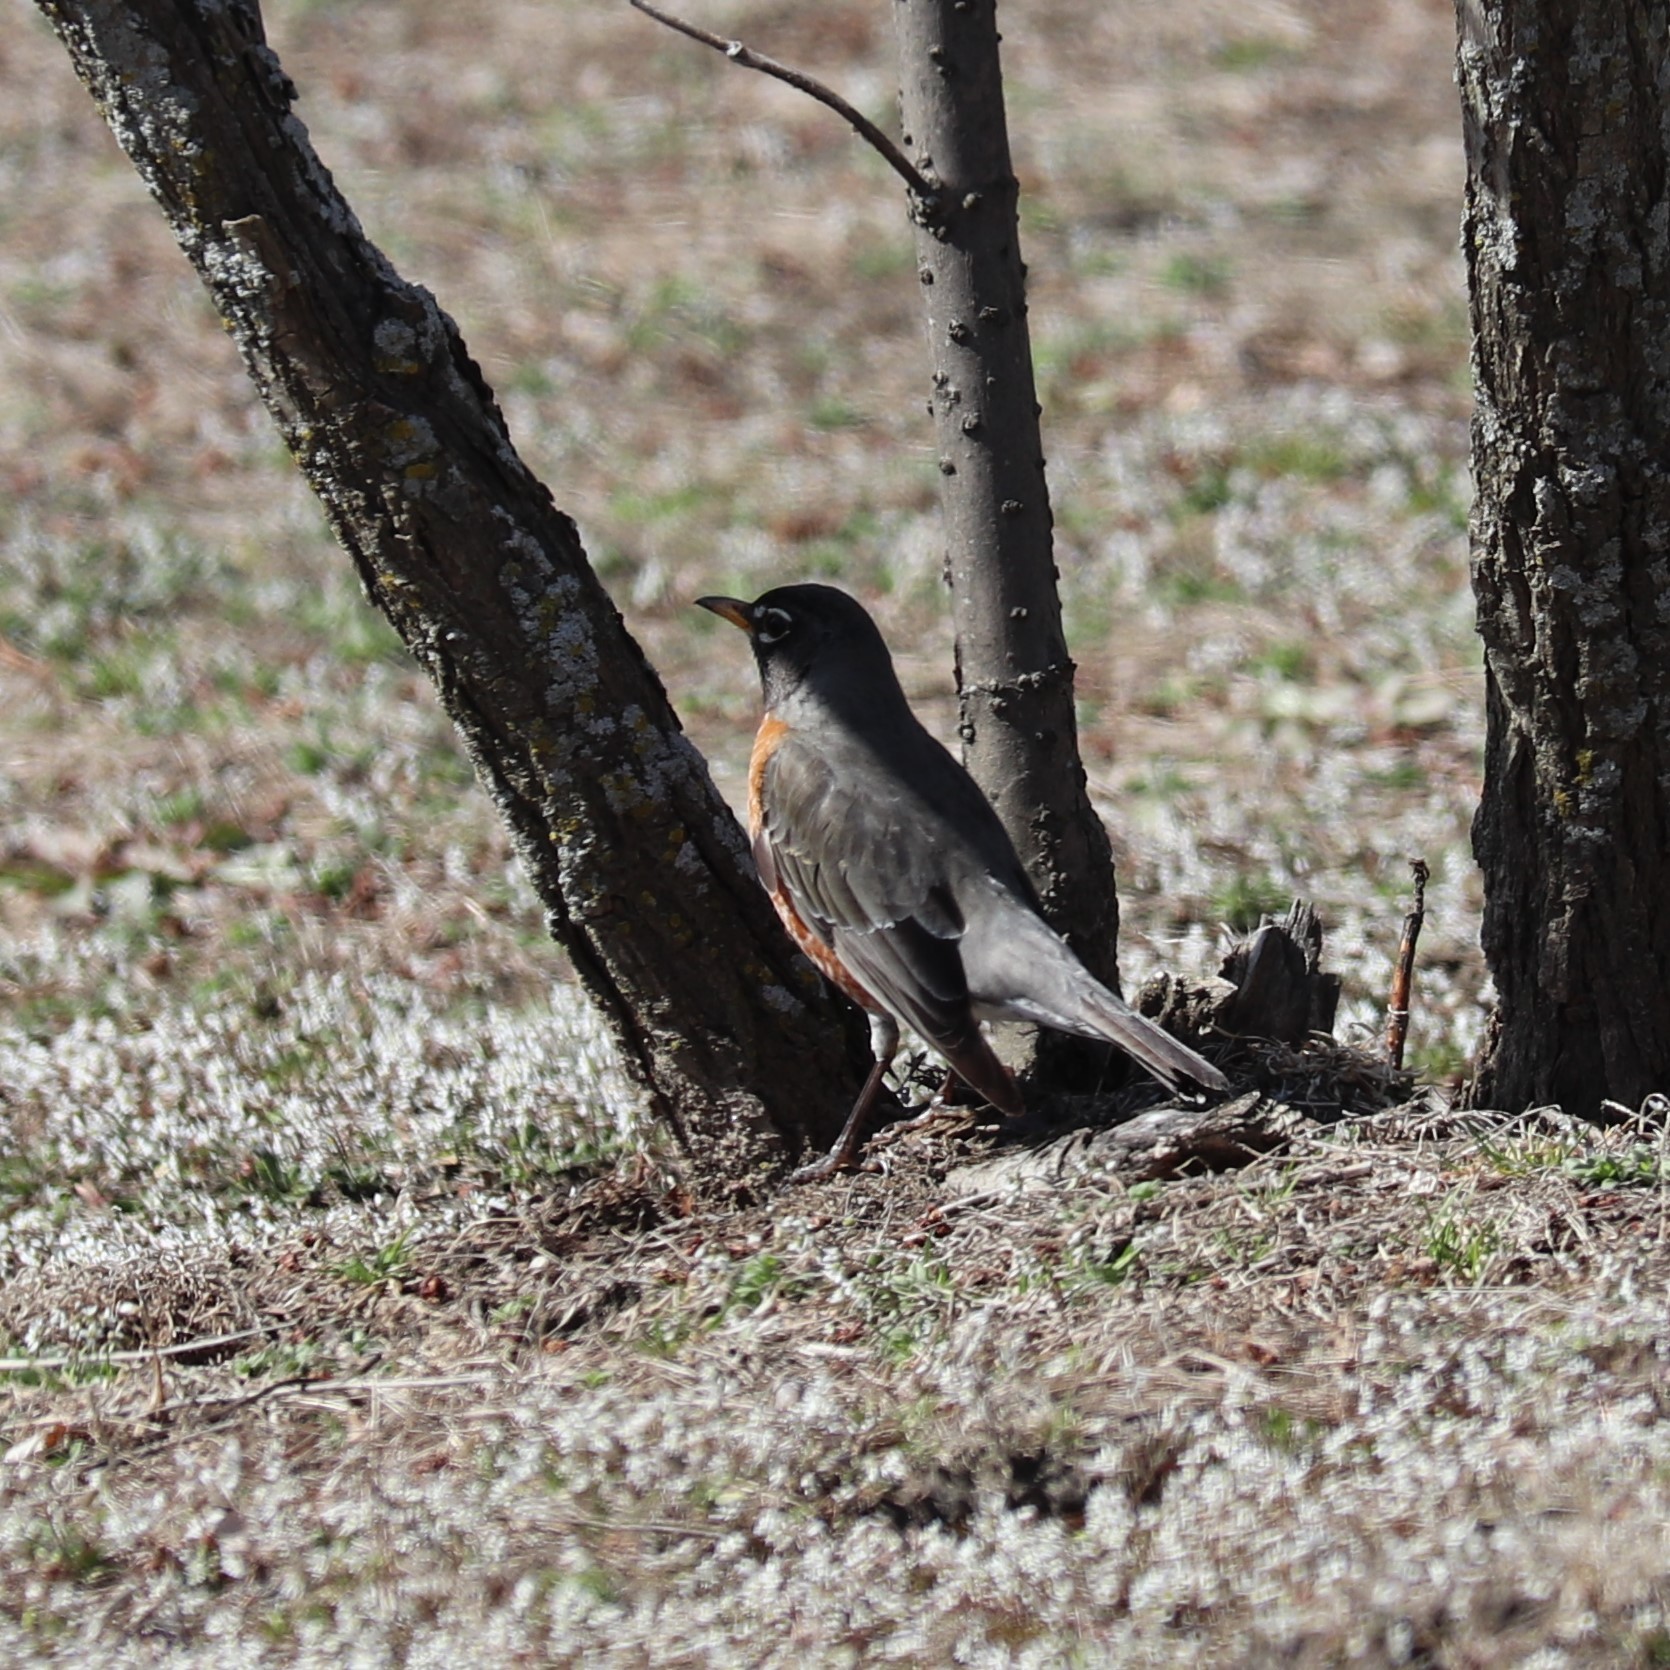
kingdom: Animalia
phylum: Chordata
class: Aves
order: Passeriformes
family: Turdidae
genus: Turdus
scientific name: Turdus migratorius
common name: American robin
